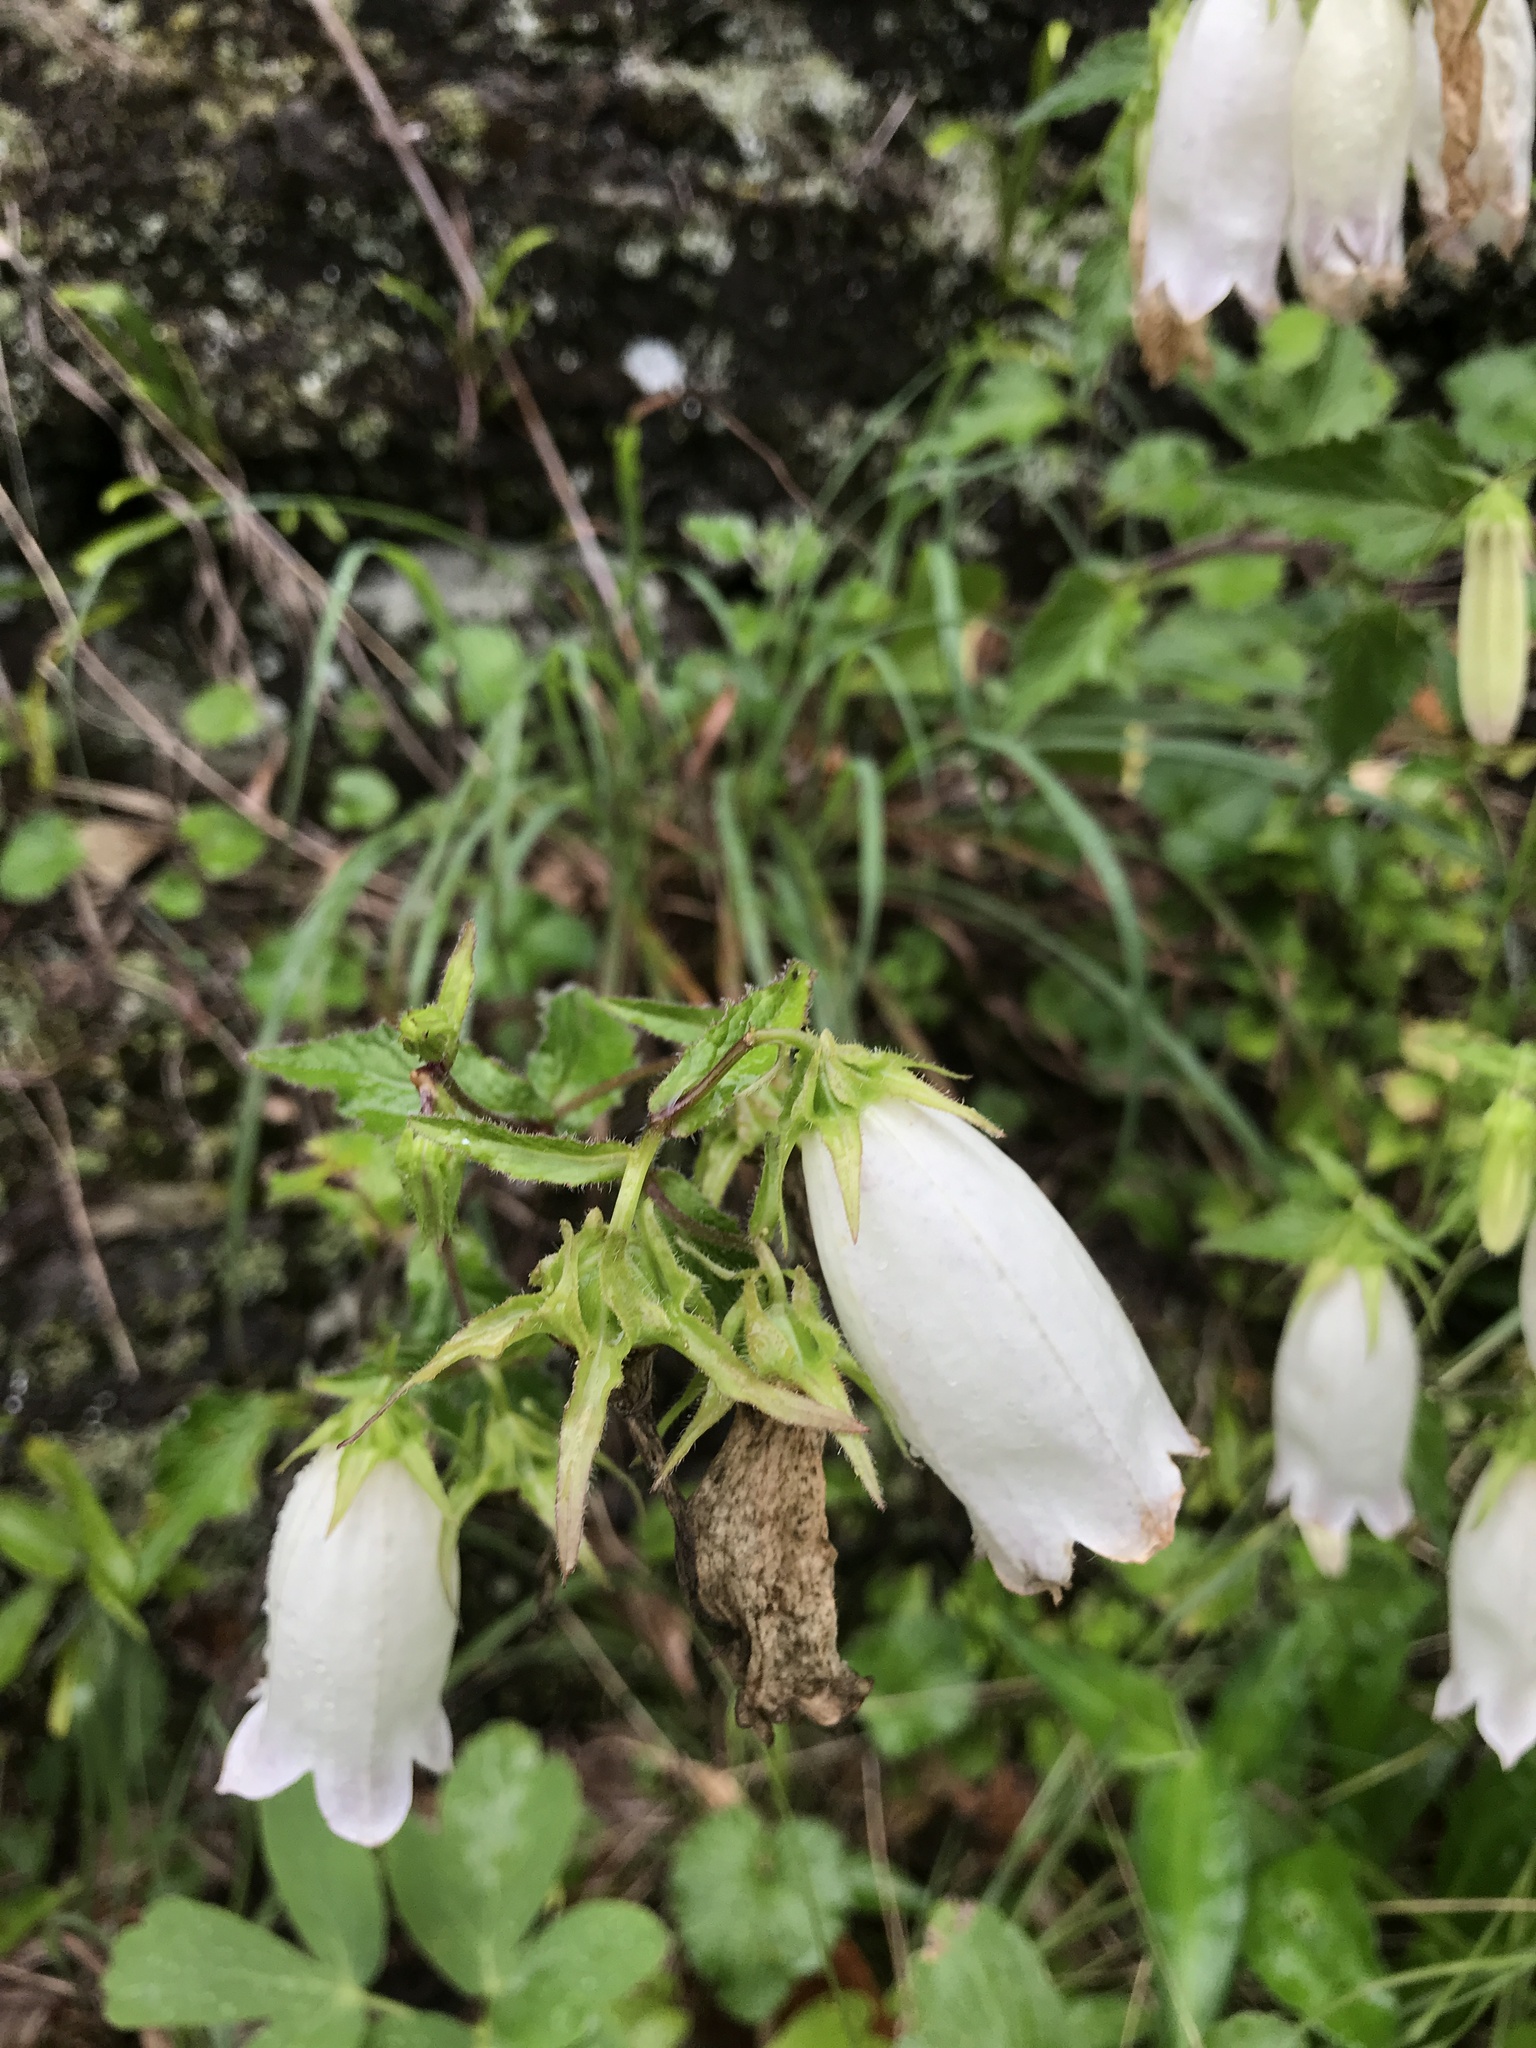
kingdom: Plantae
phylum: Tracheophyta
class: Magnoliopsida
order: Asterales
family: Campanulaceae
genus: Campanula
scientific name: Campanula punctata
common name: Spotted bellflower
